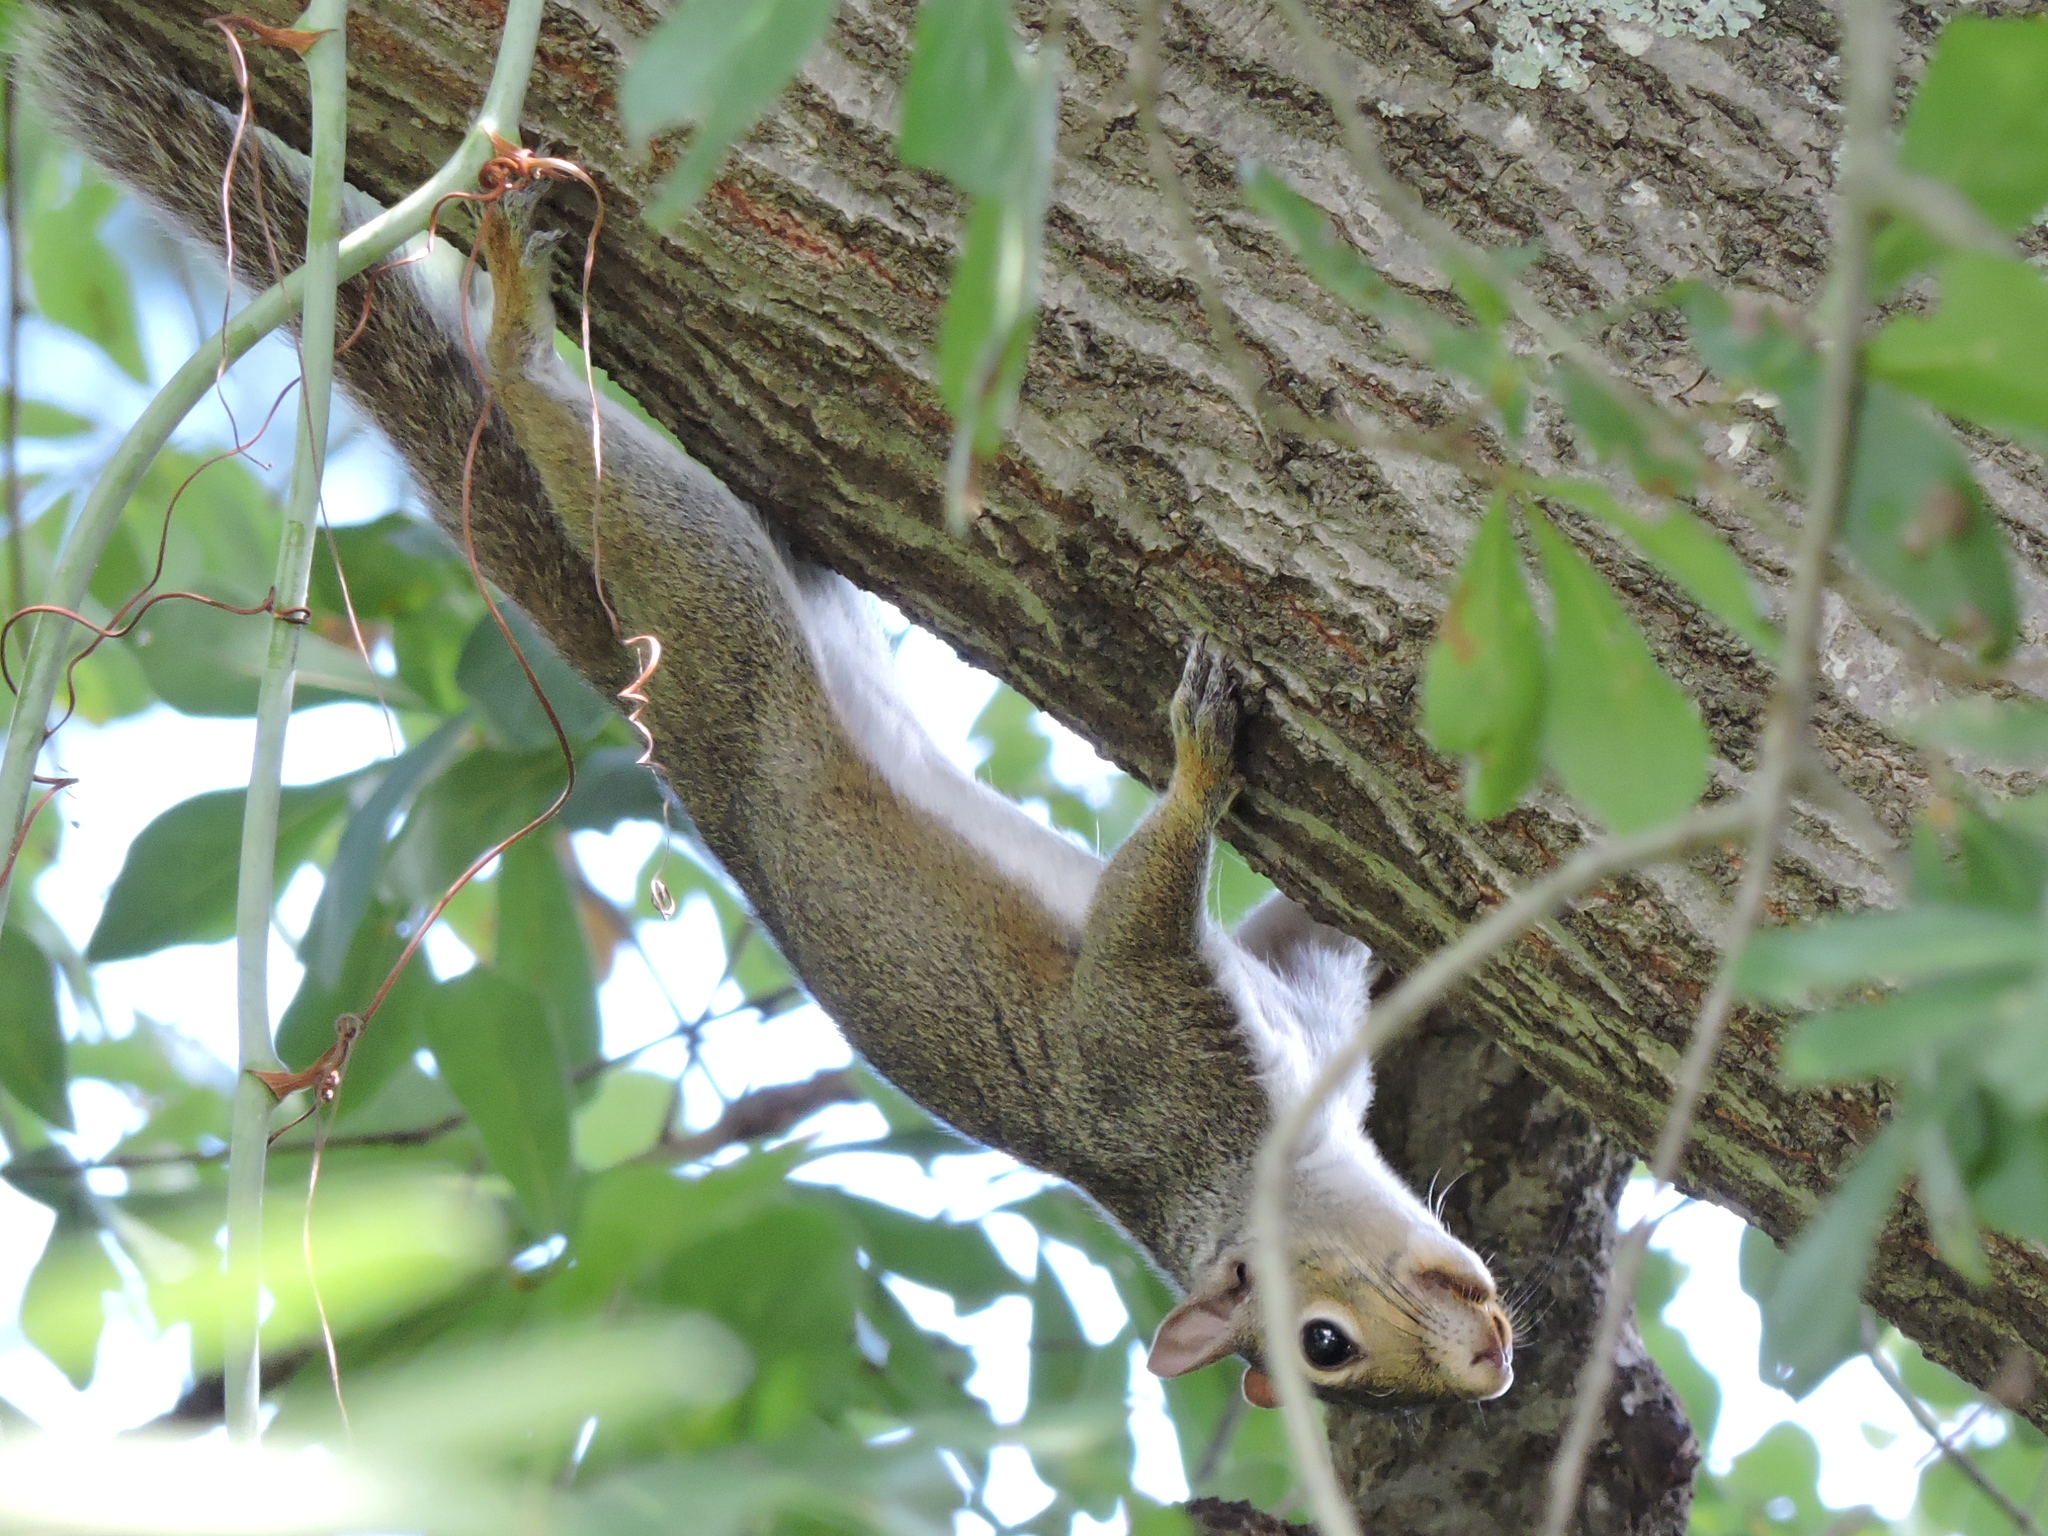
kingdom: Animalia
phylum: Chordata
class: Mammalia
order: Rodentia
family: Sciuridae
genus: Sciurus
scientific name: Sciurus carolinensis
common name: Eastern gray squirrel
